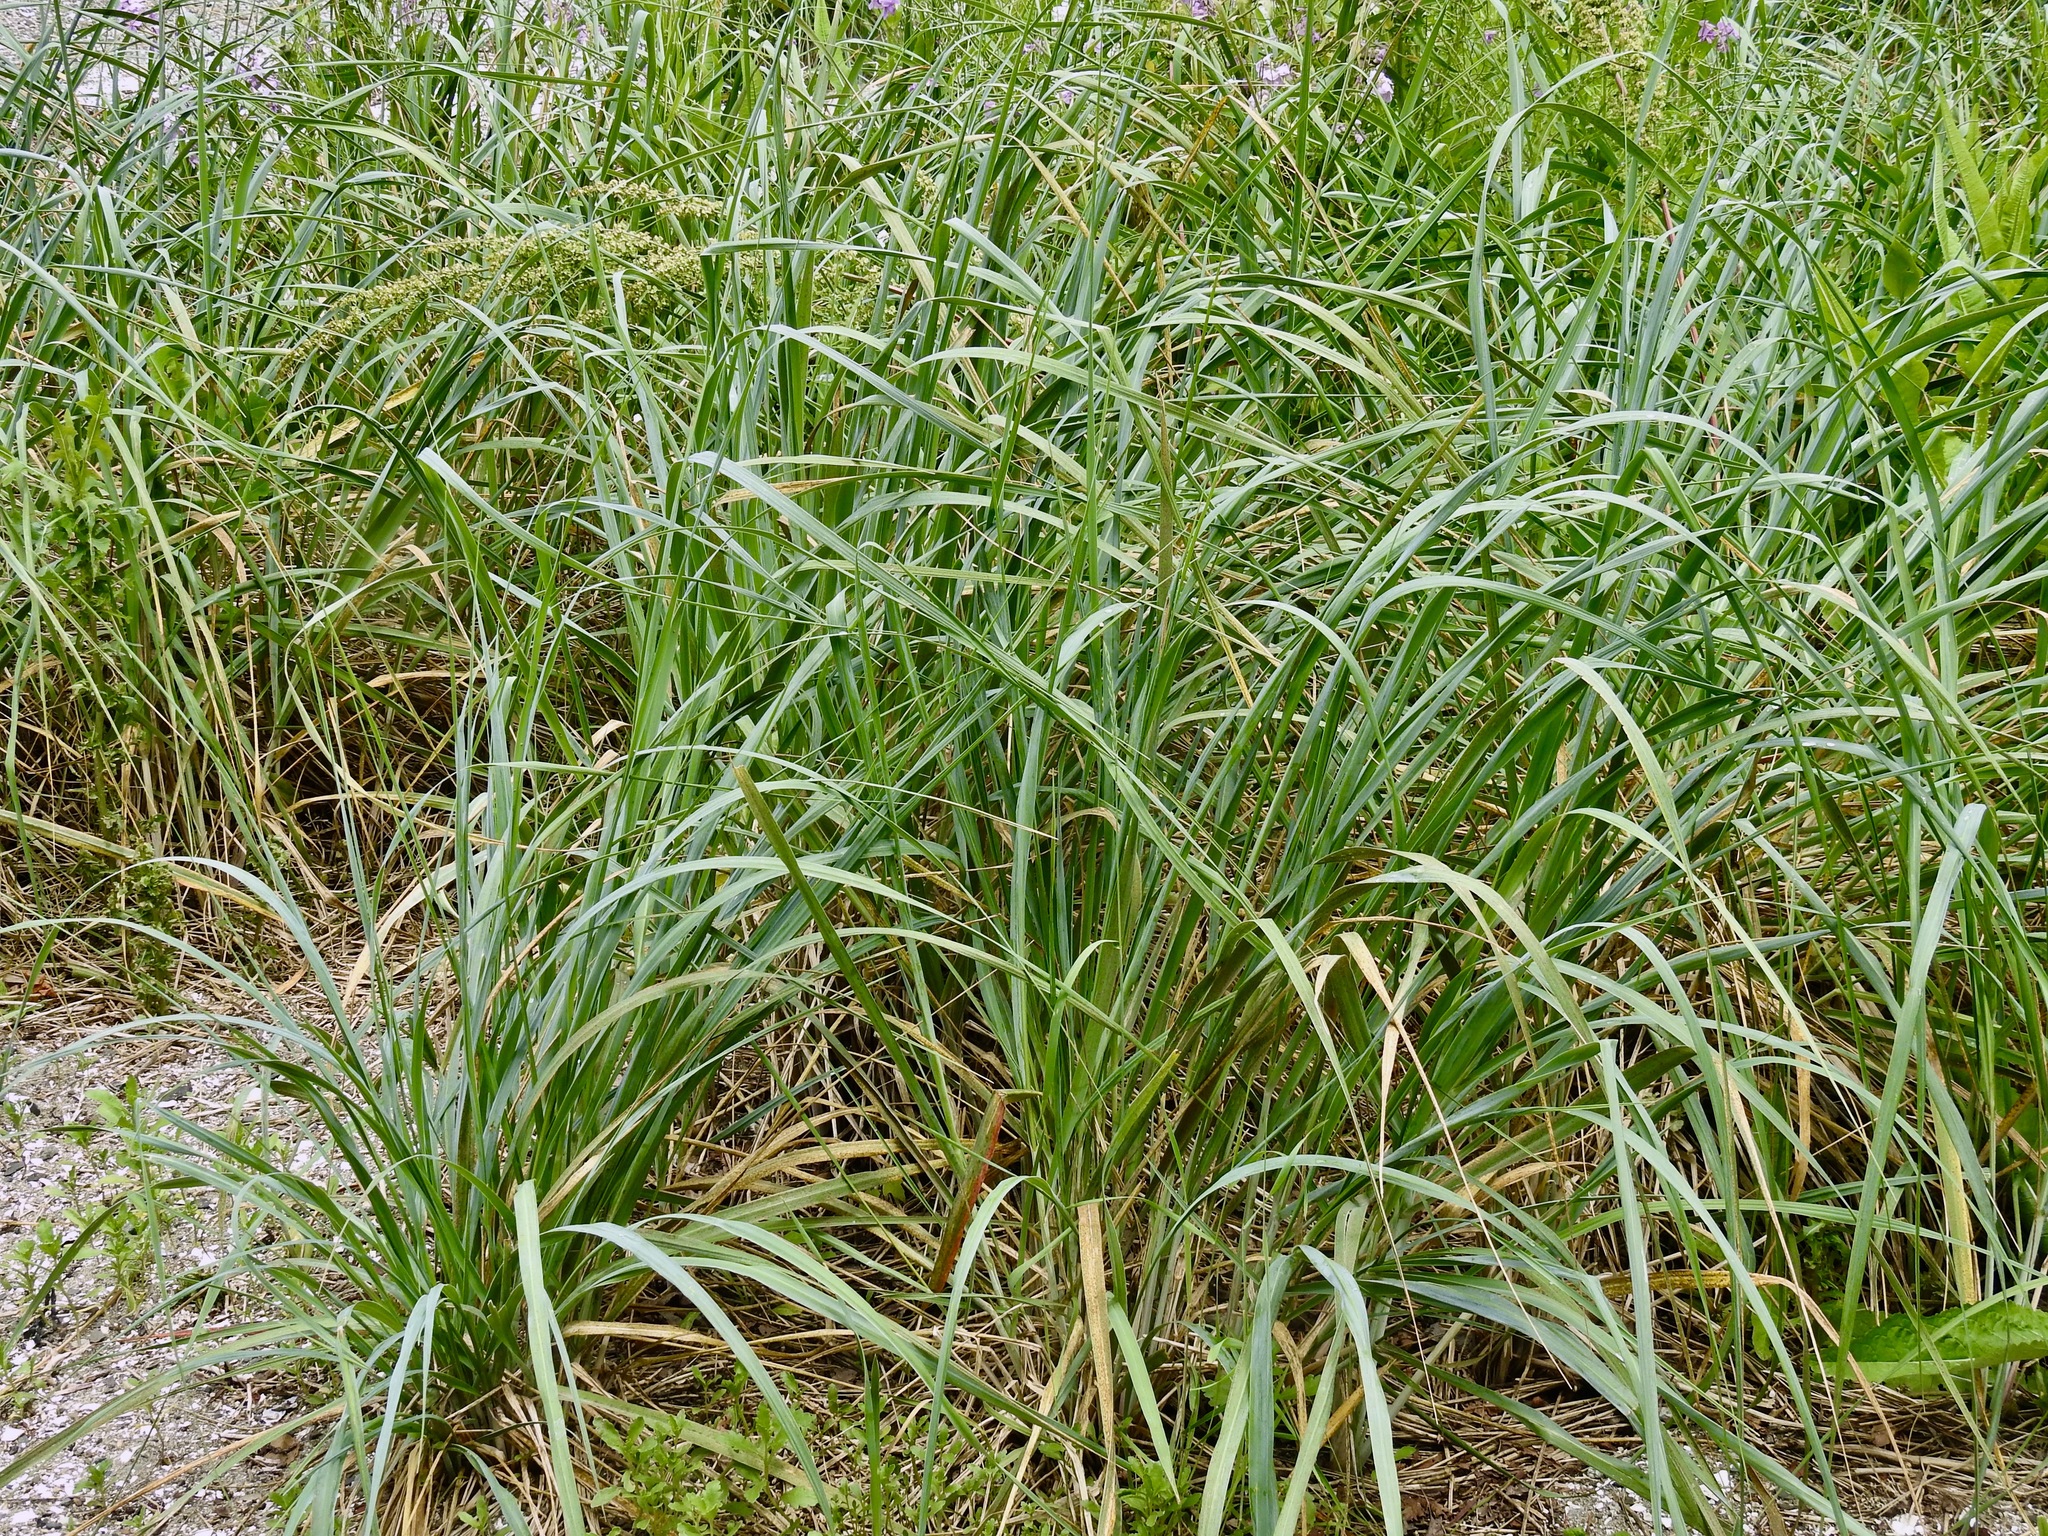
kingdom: Plantae
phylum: Tracheophyta
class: Liliopsida
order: Poales
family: Poaceae
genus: Leymus
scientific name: Leymus mollis
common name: American dune grass
